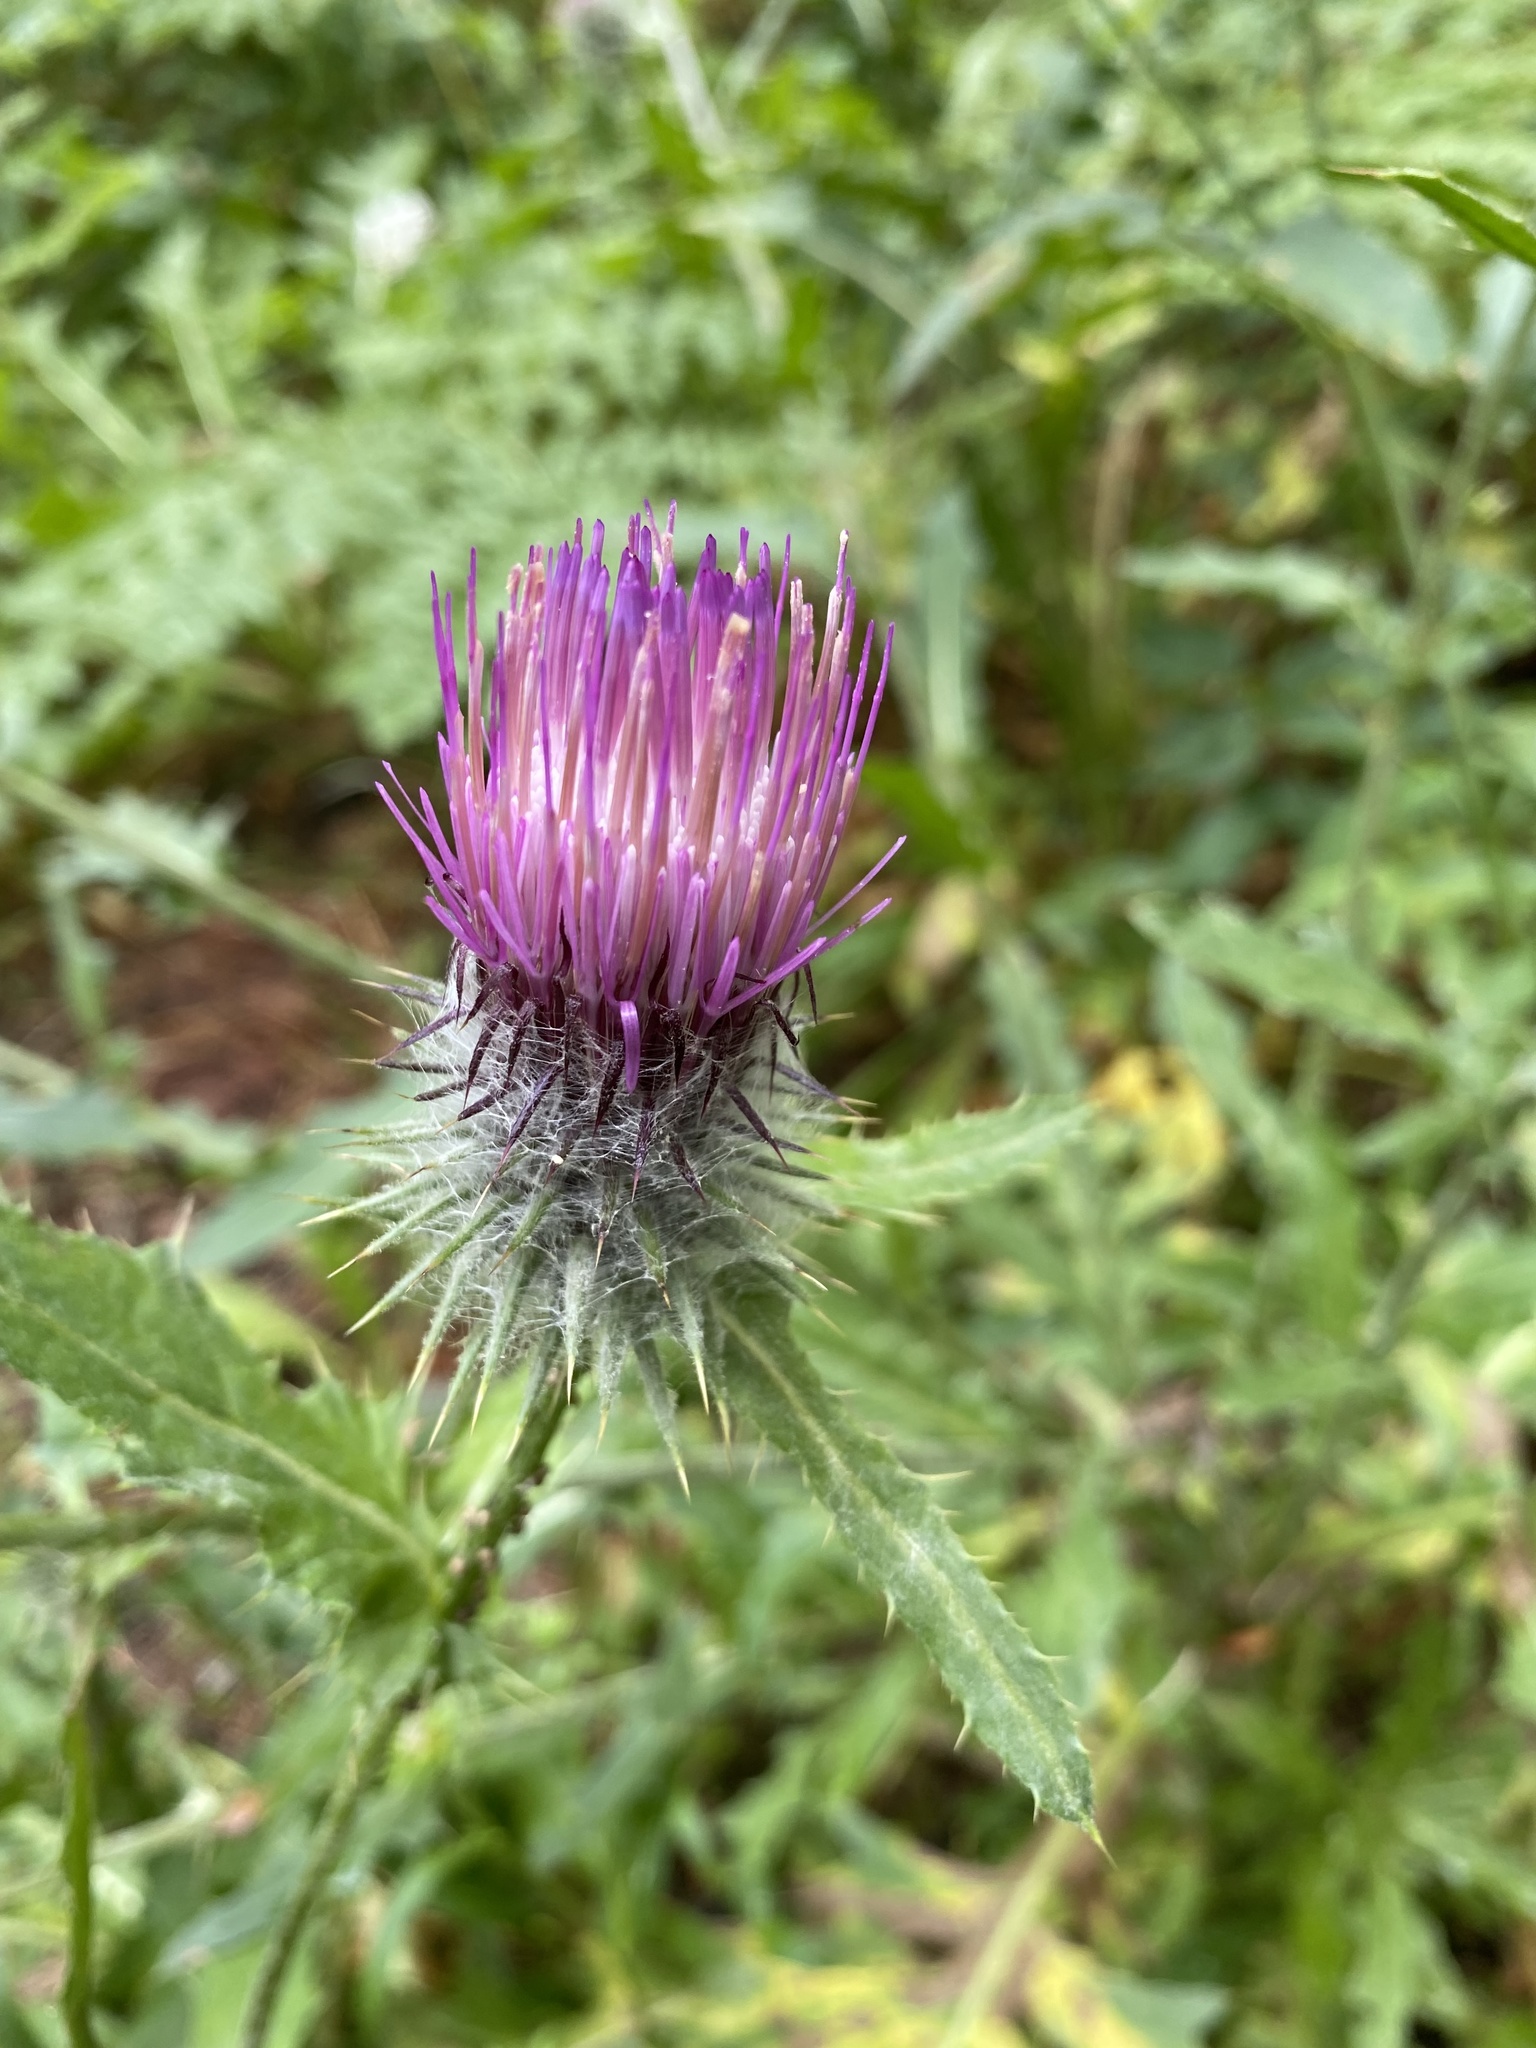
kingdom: Plantae
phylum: Tracheophyta
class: Magnoliopsida
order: Asterales
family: Asteraceae
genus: Cirsium
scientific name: Cirsium edule
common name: Indian thistle
